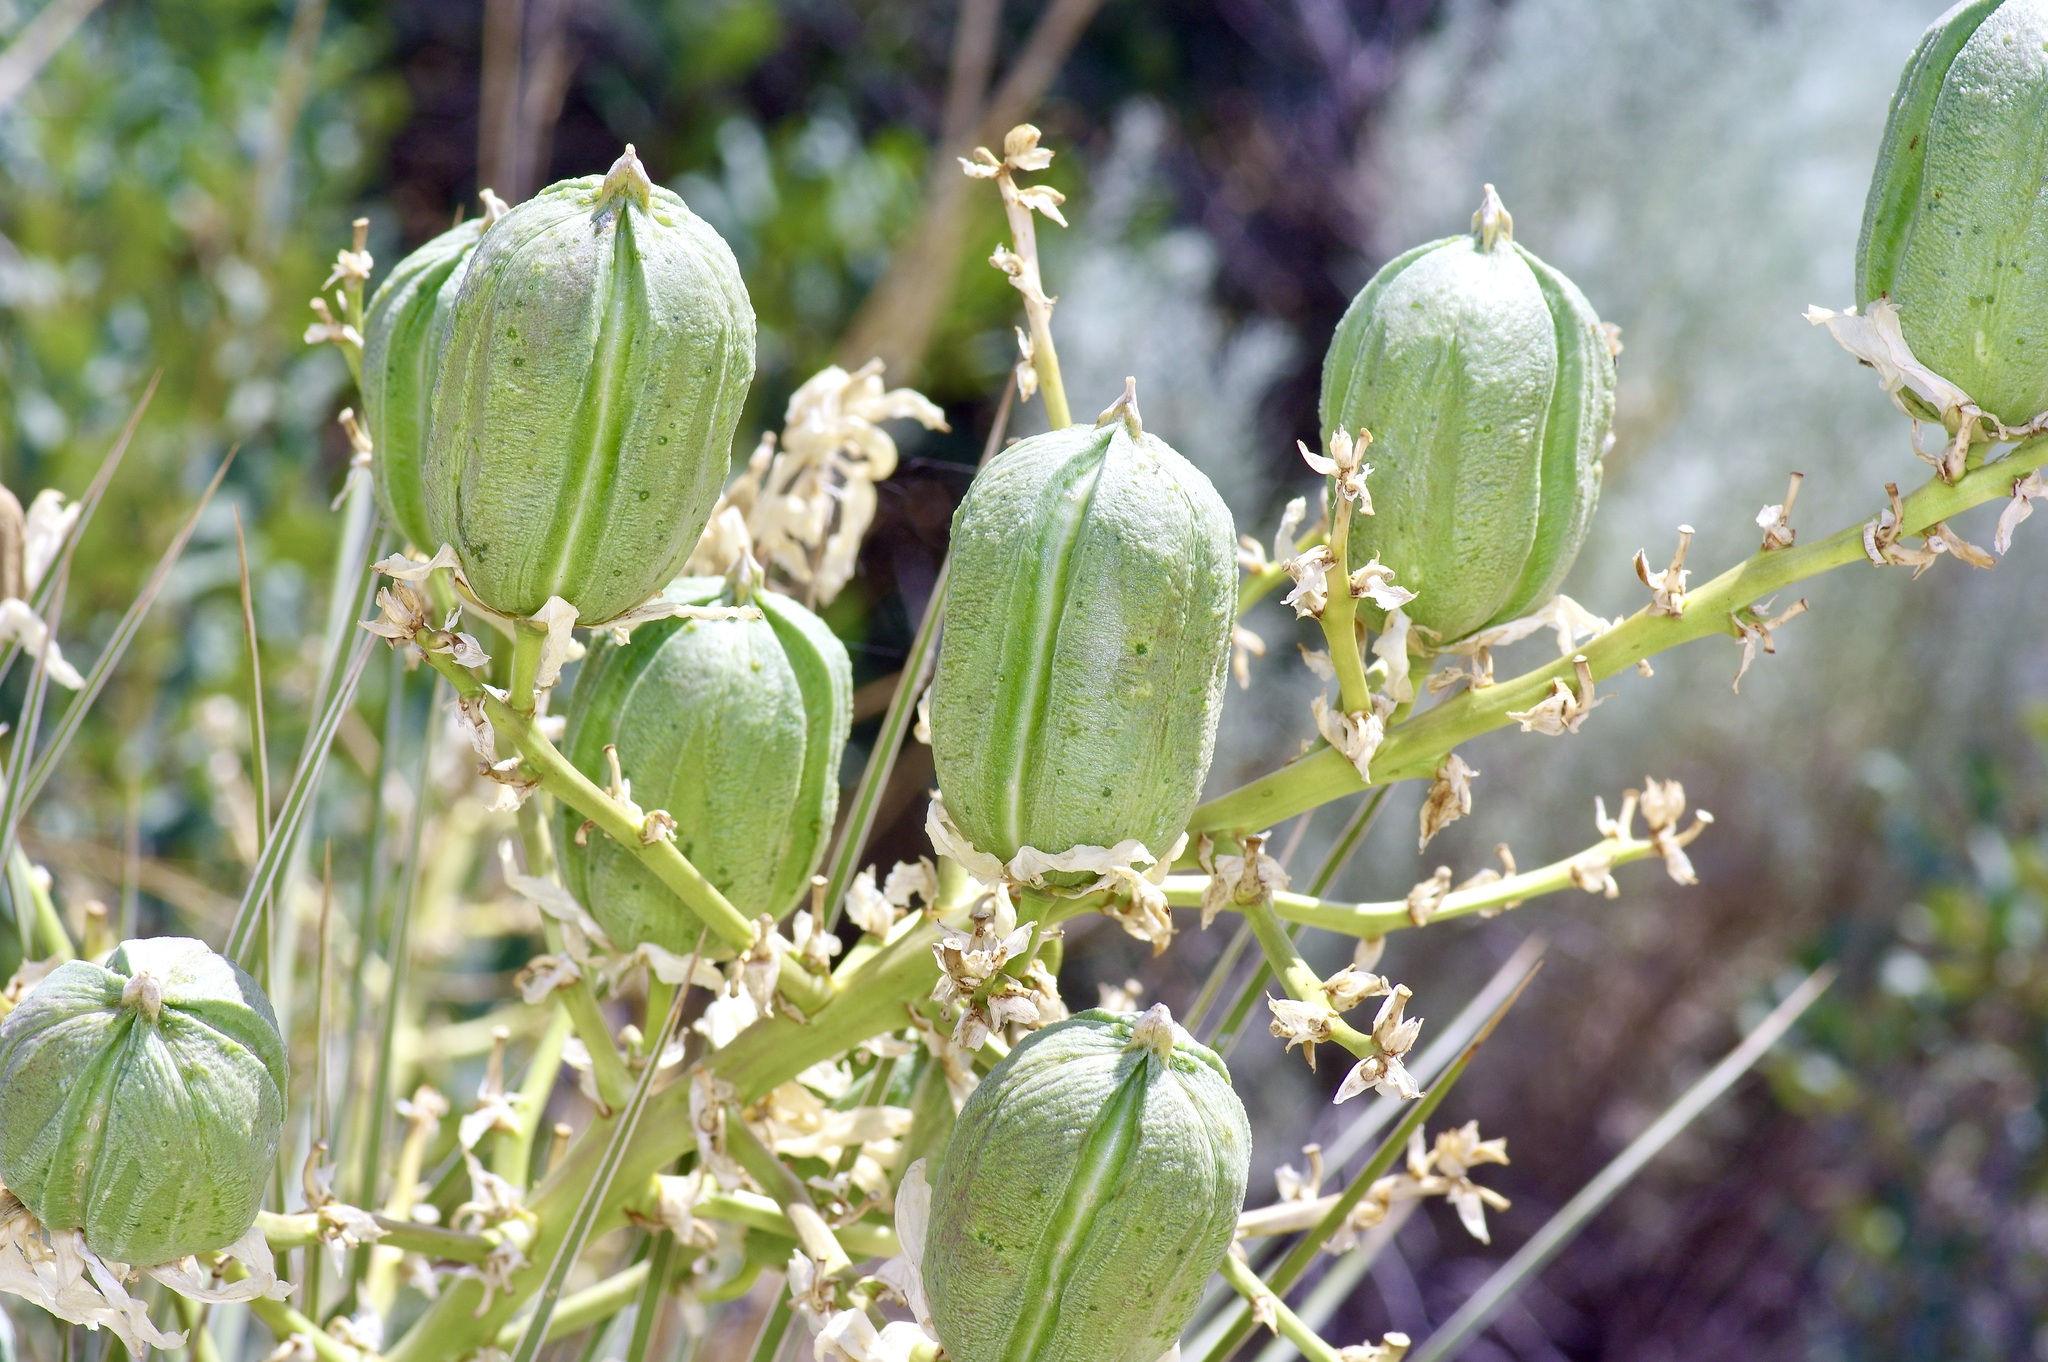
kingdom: Plantae
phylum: Tracheophyta
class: Liliopsida
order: Asparagales
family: Asparagaceae
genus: Yucca
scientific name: Yucca campestris
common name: Plains yucca
